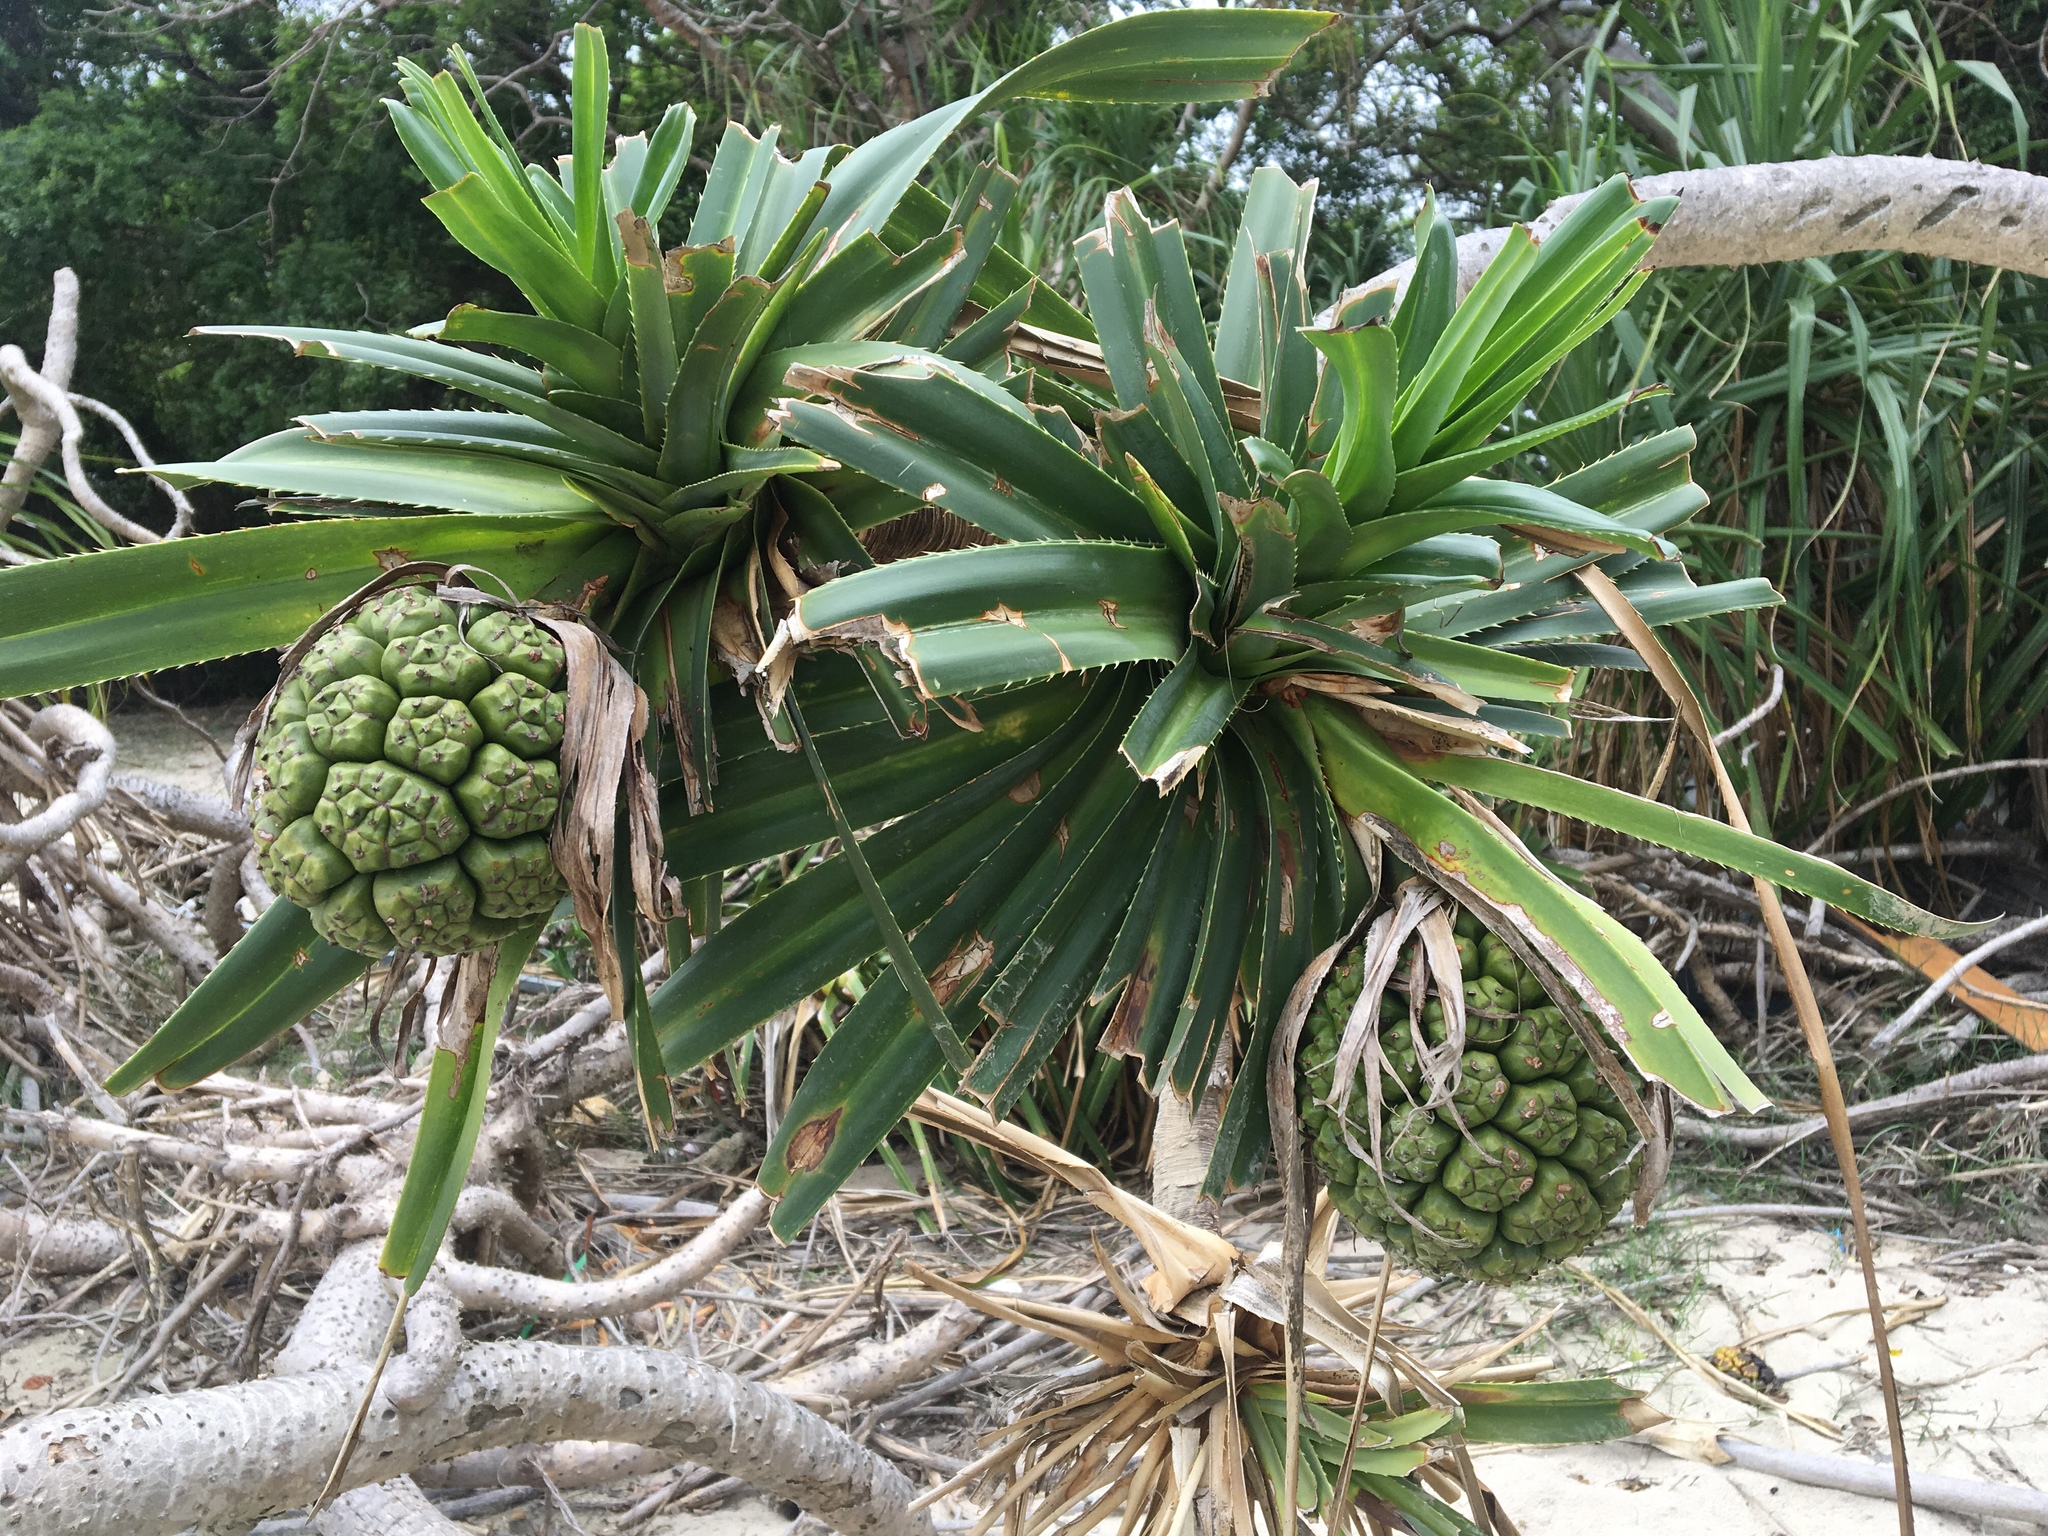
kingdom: Plantae
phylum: Tracheophyta
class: Liliopsida
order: Pandanales
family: Pandanaceae
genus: Pandanus
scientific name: Pandanus tectorius
